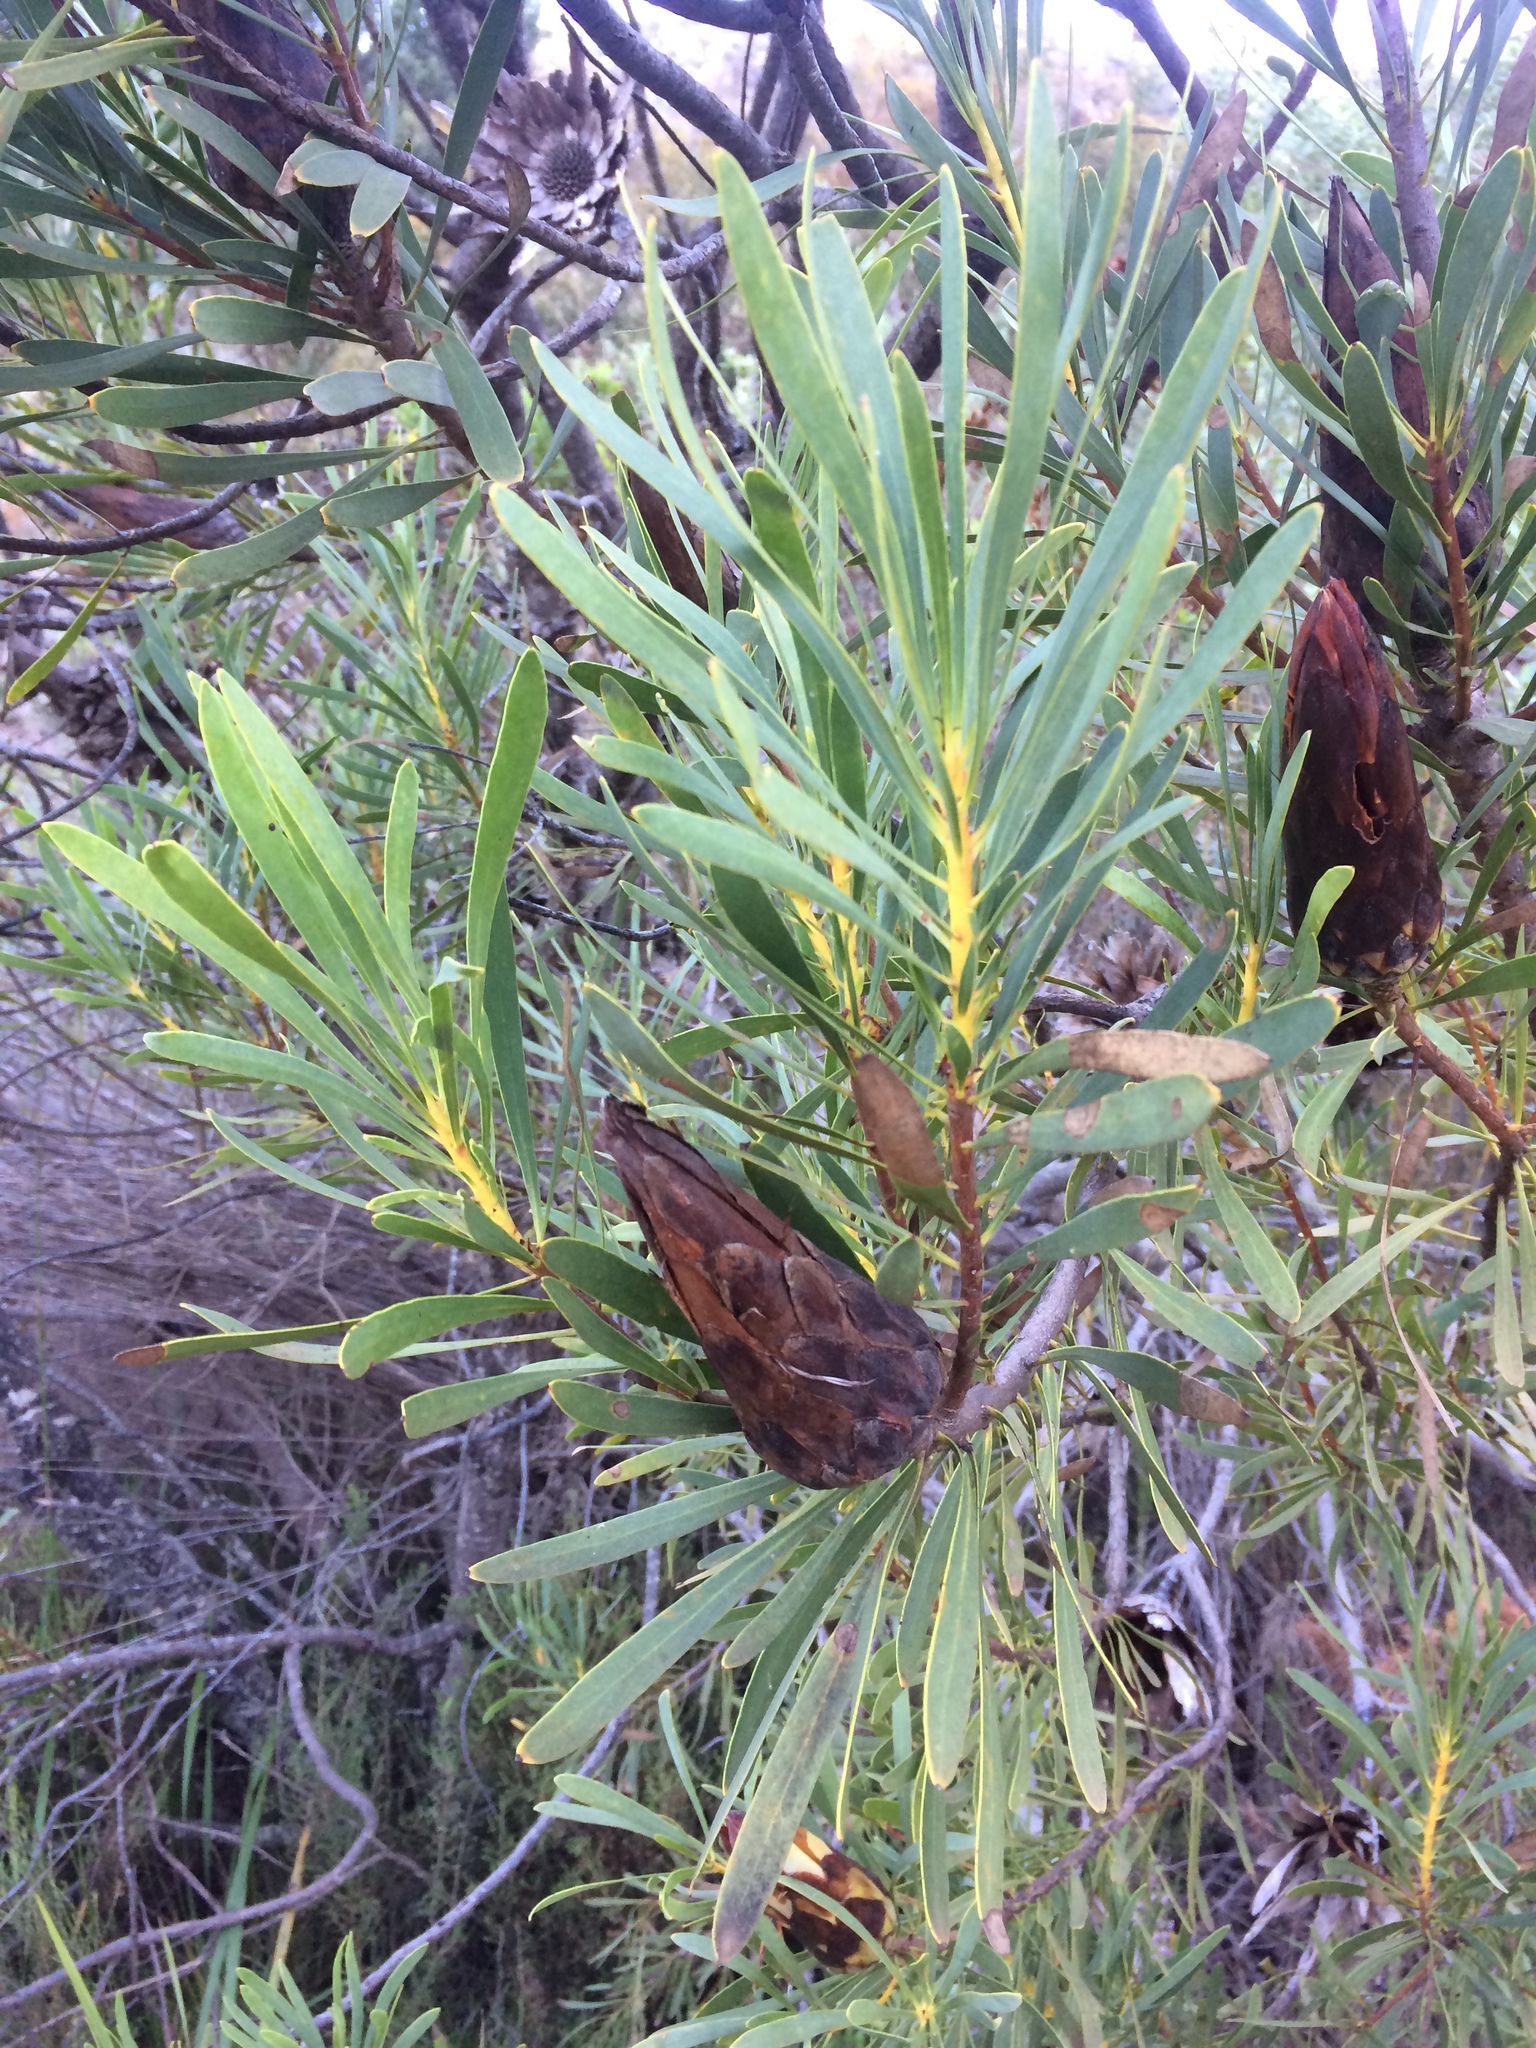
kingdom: Plantae
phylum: Tracheophyta
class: Magnoliopsida
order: Proteales
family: Proteaceae
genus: Protea
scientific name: Protea repens
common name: Sugarbush
